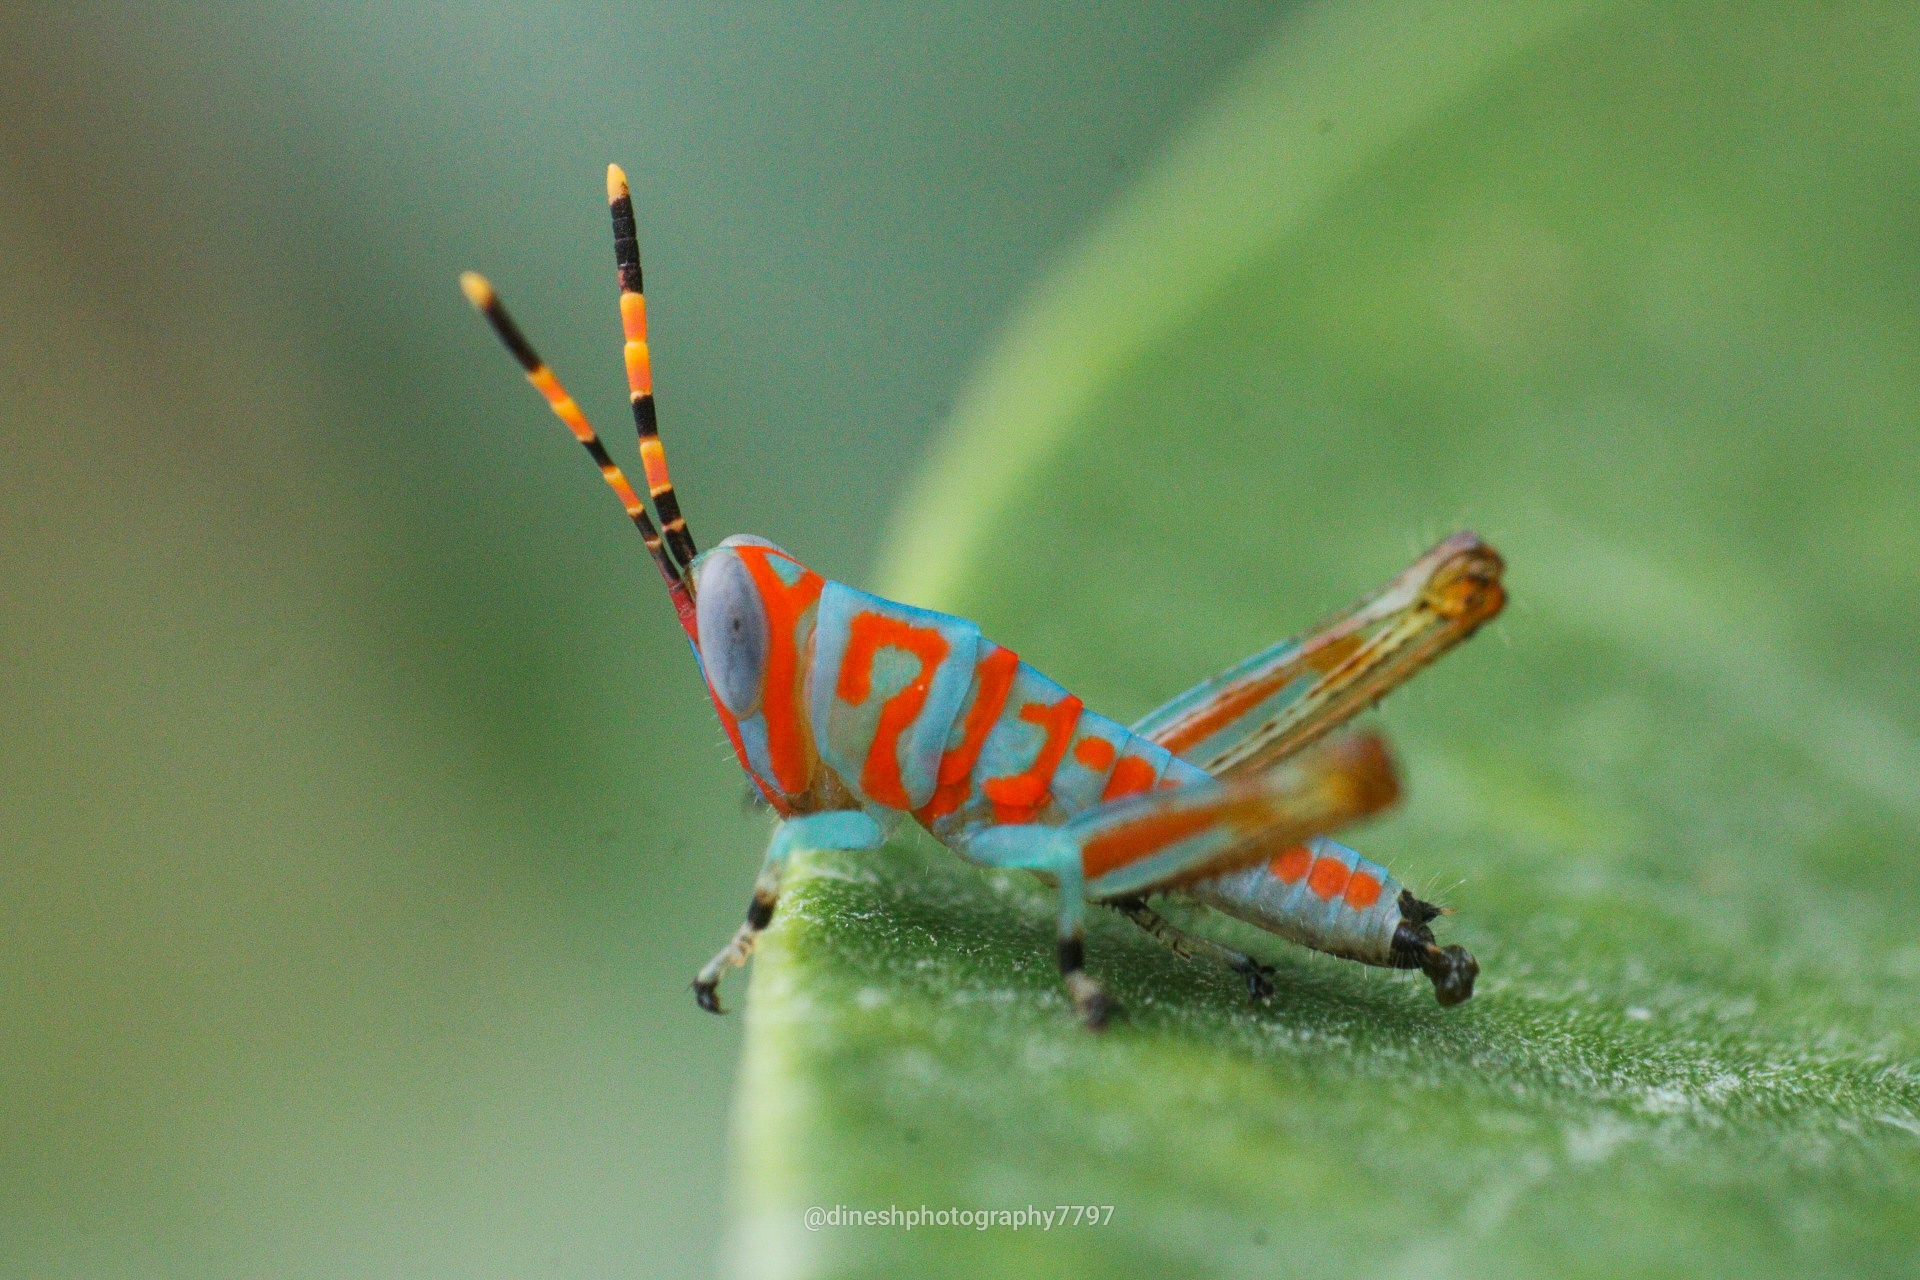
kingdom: Animalia
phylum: Arthropoda
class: Insecta
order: Orthoptera
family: Acrididae
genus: Pirithoicus
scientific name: Pirithoicus ophthalmicus
